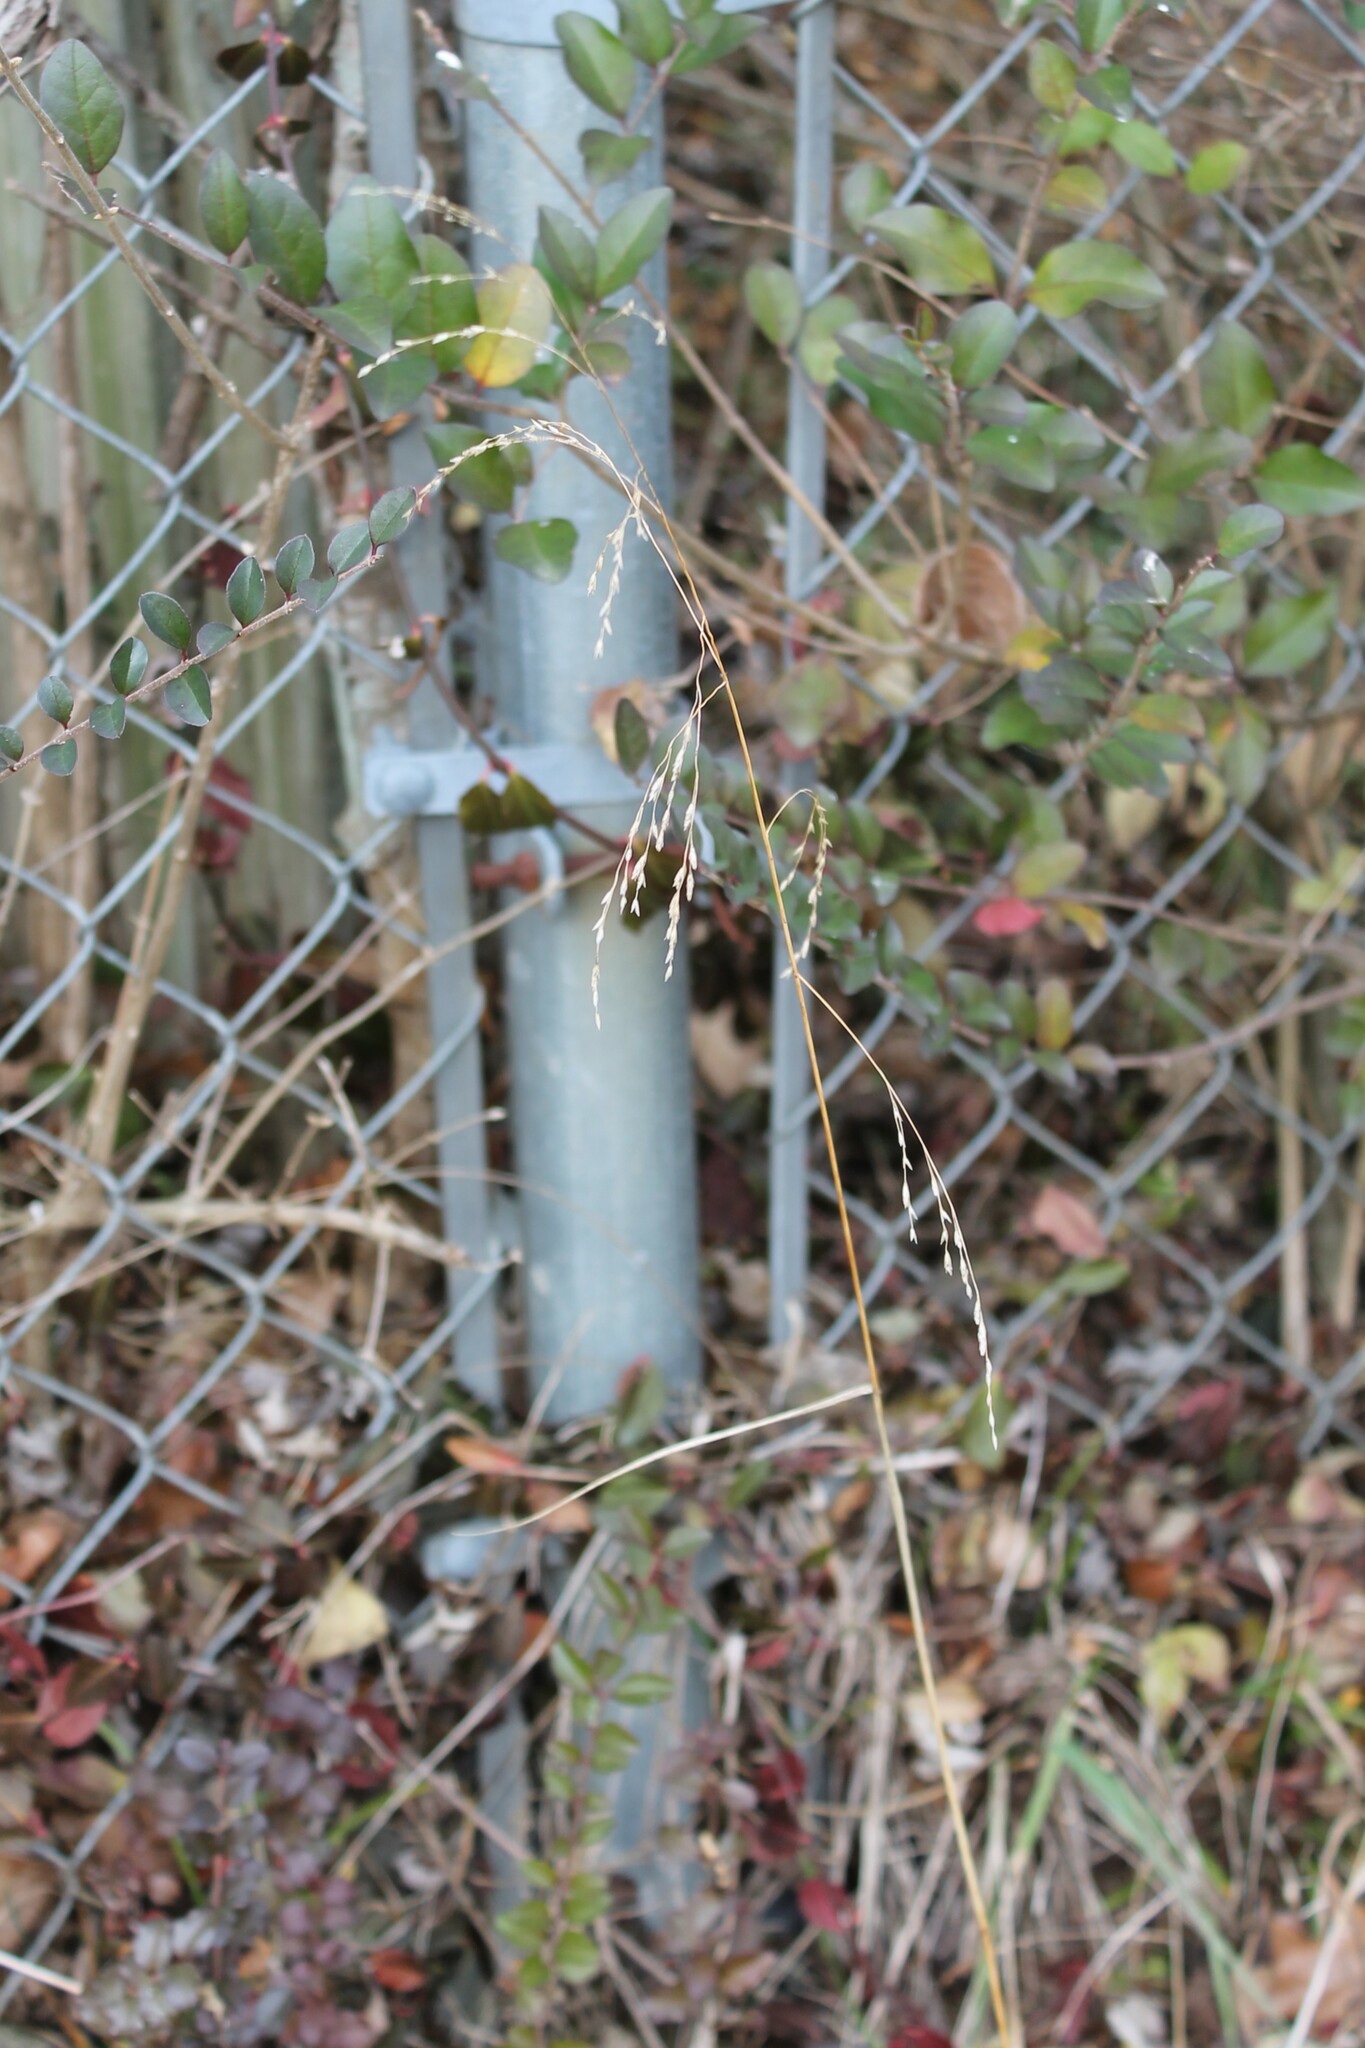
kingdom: Plantae
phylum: Tracheophyta
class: Liliopsida
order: Poales
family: Poaceae
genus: Tridens
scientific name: Tridens flavus
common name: Purpletop
